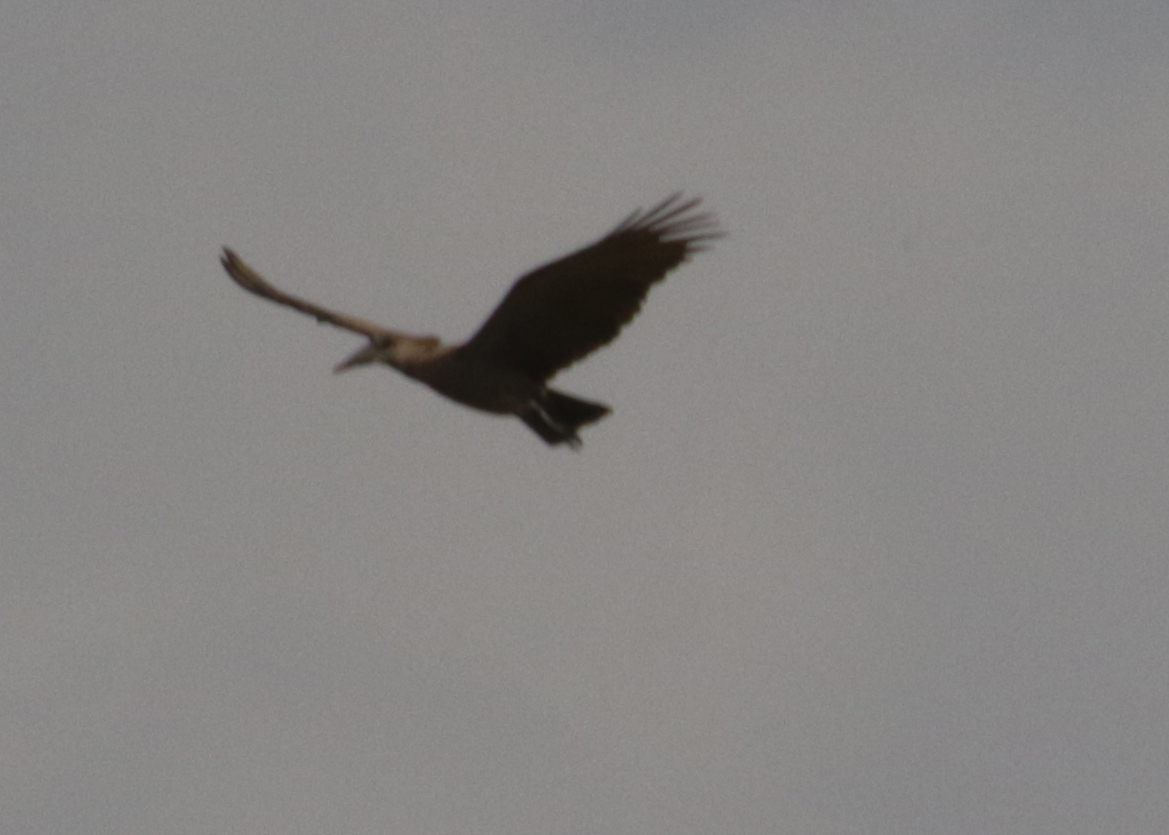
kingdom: Animalia
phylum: Chordata
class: Aves
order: Pelecaniformes
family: Scopidae
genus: Scopus
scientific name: Scopus umbretta
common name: Hamerkop
